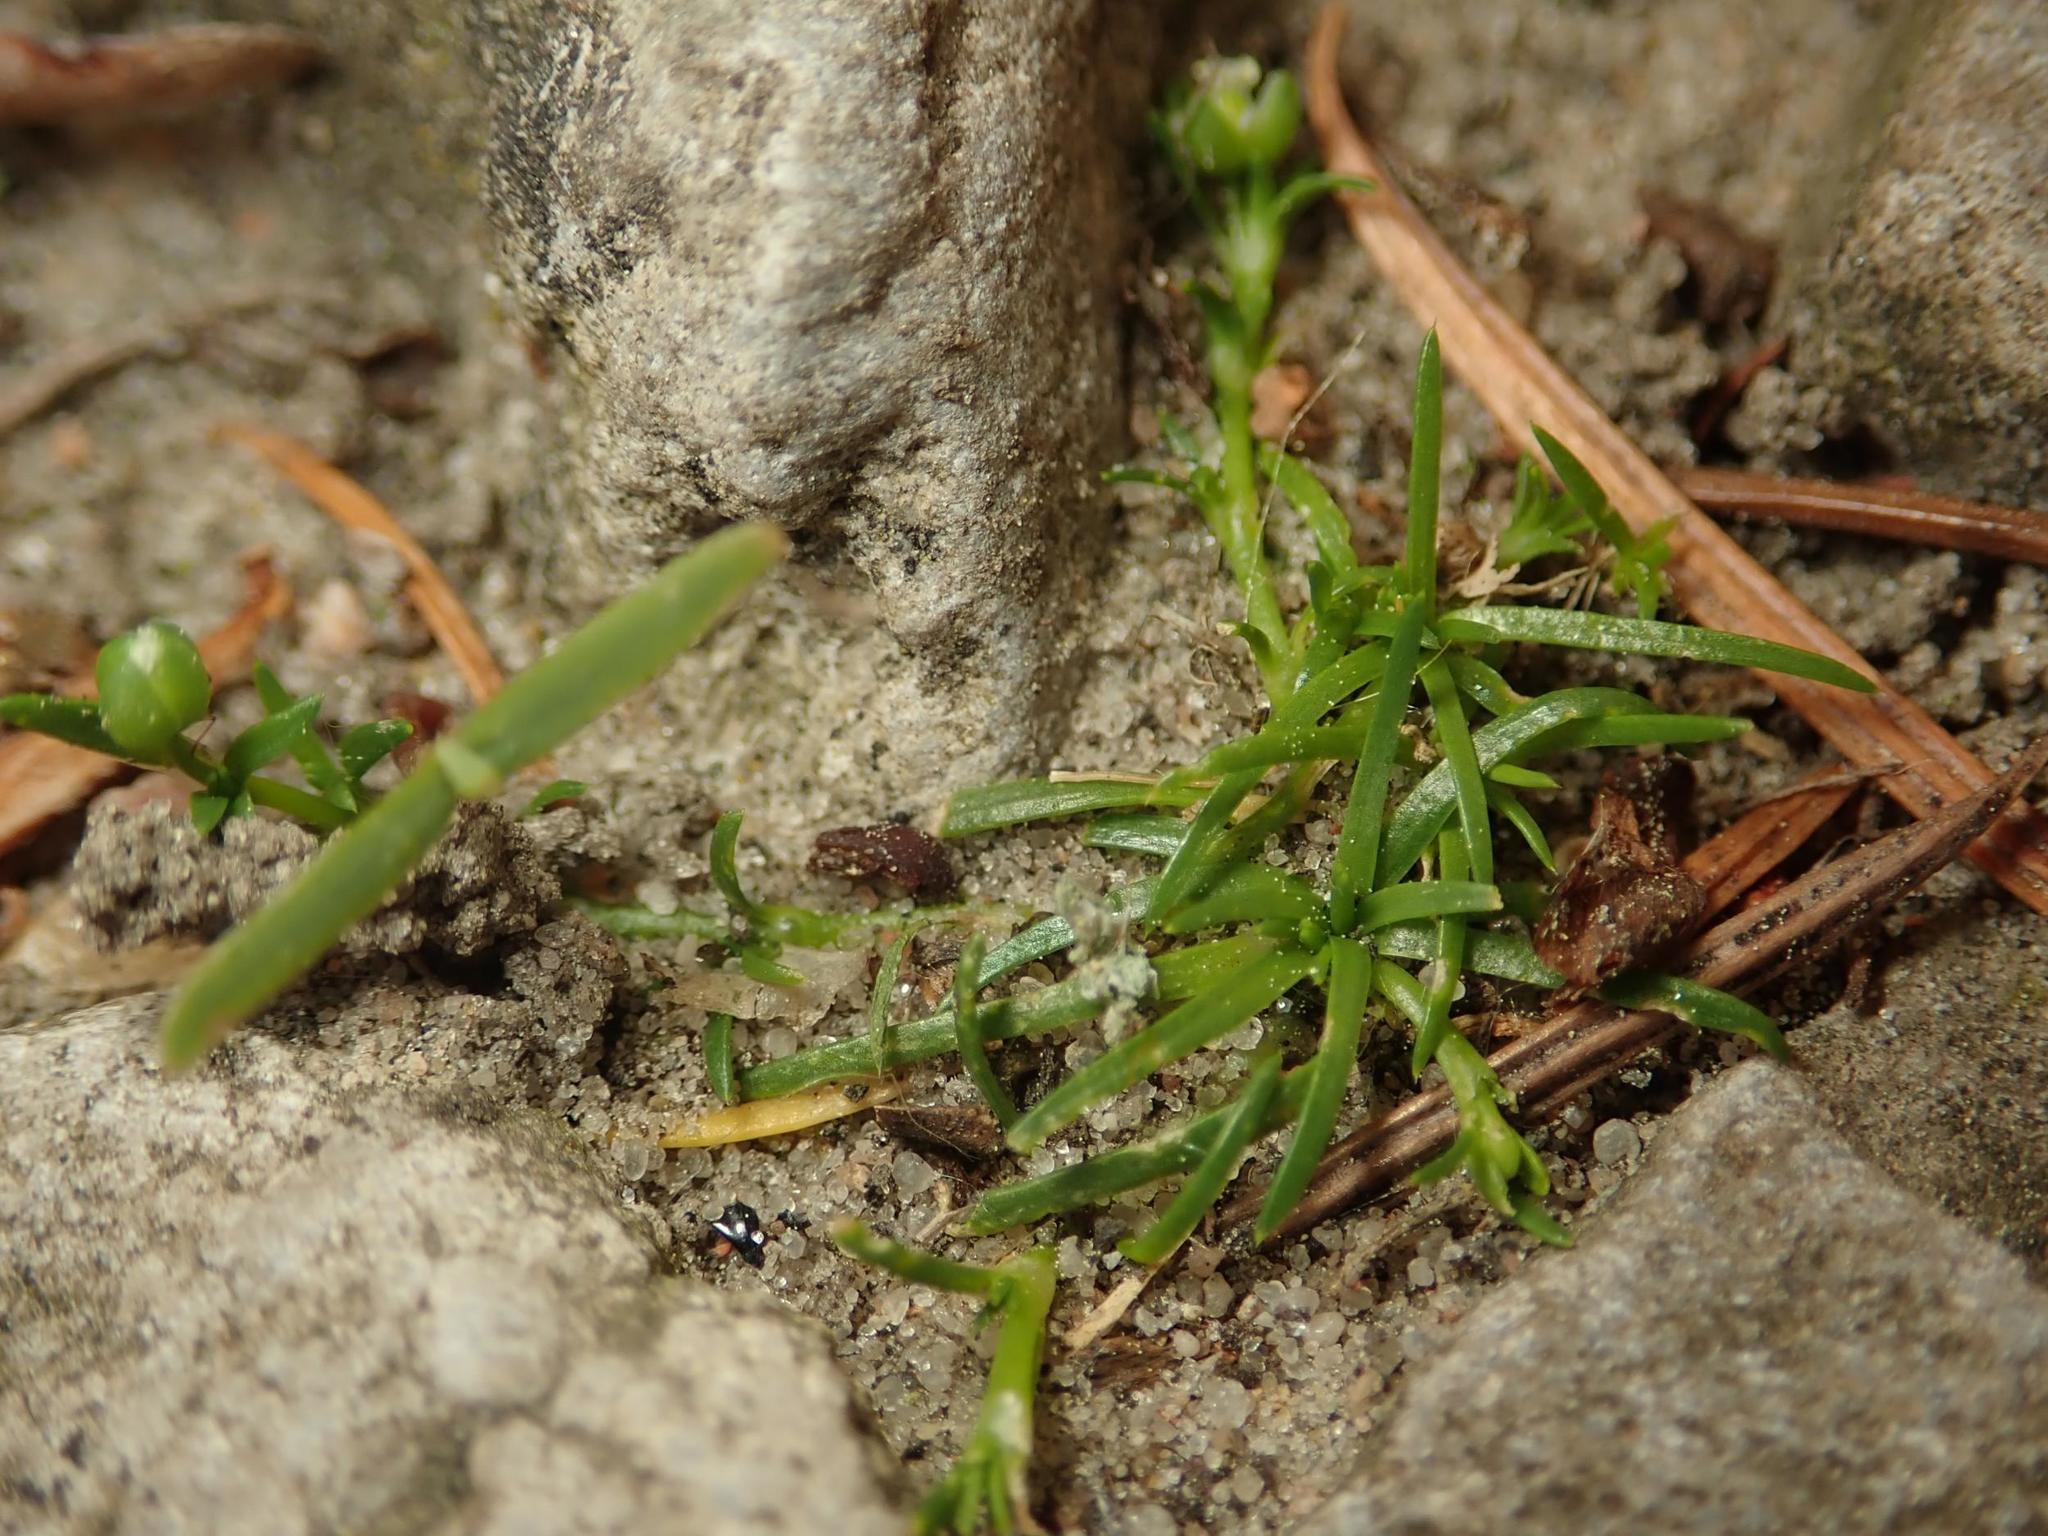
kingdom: Plantae
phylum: Tracheophyta
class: Magnoliopsida
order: Caryophyllales
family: Caryophyllaceae
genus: Sagina
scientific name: Sagina procumbens
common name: Procumbent pearlwort
